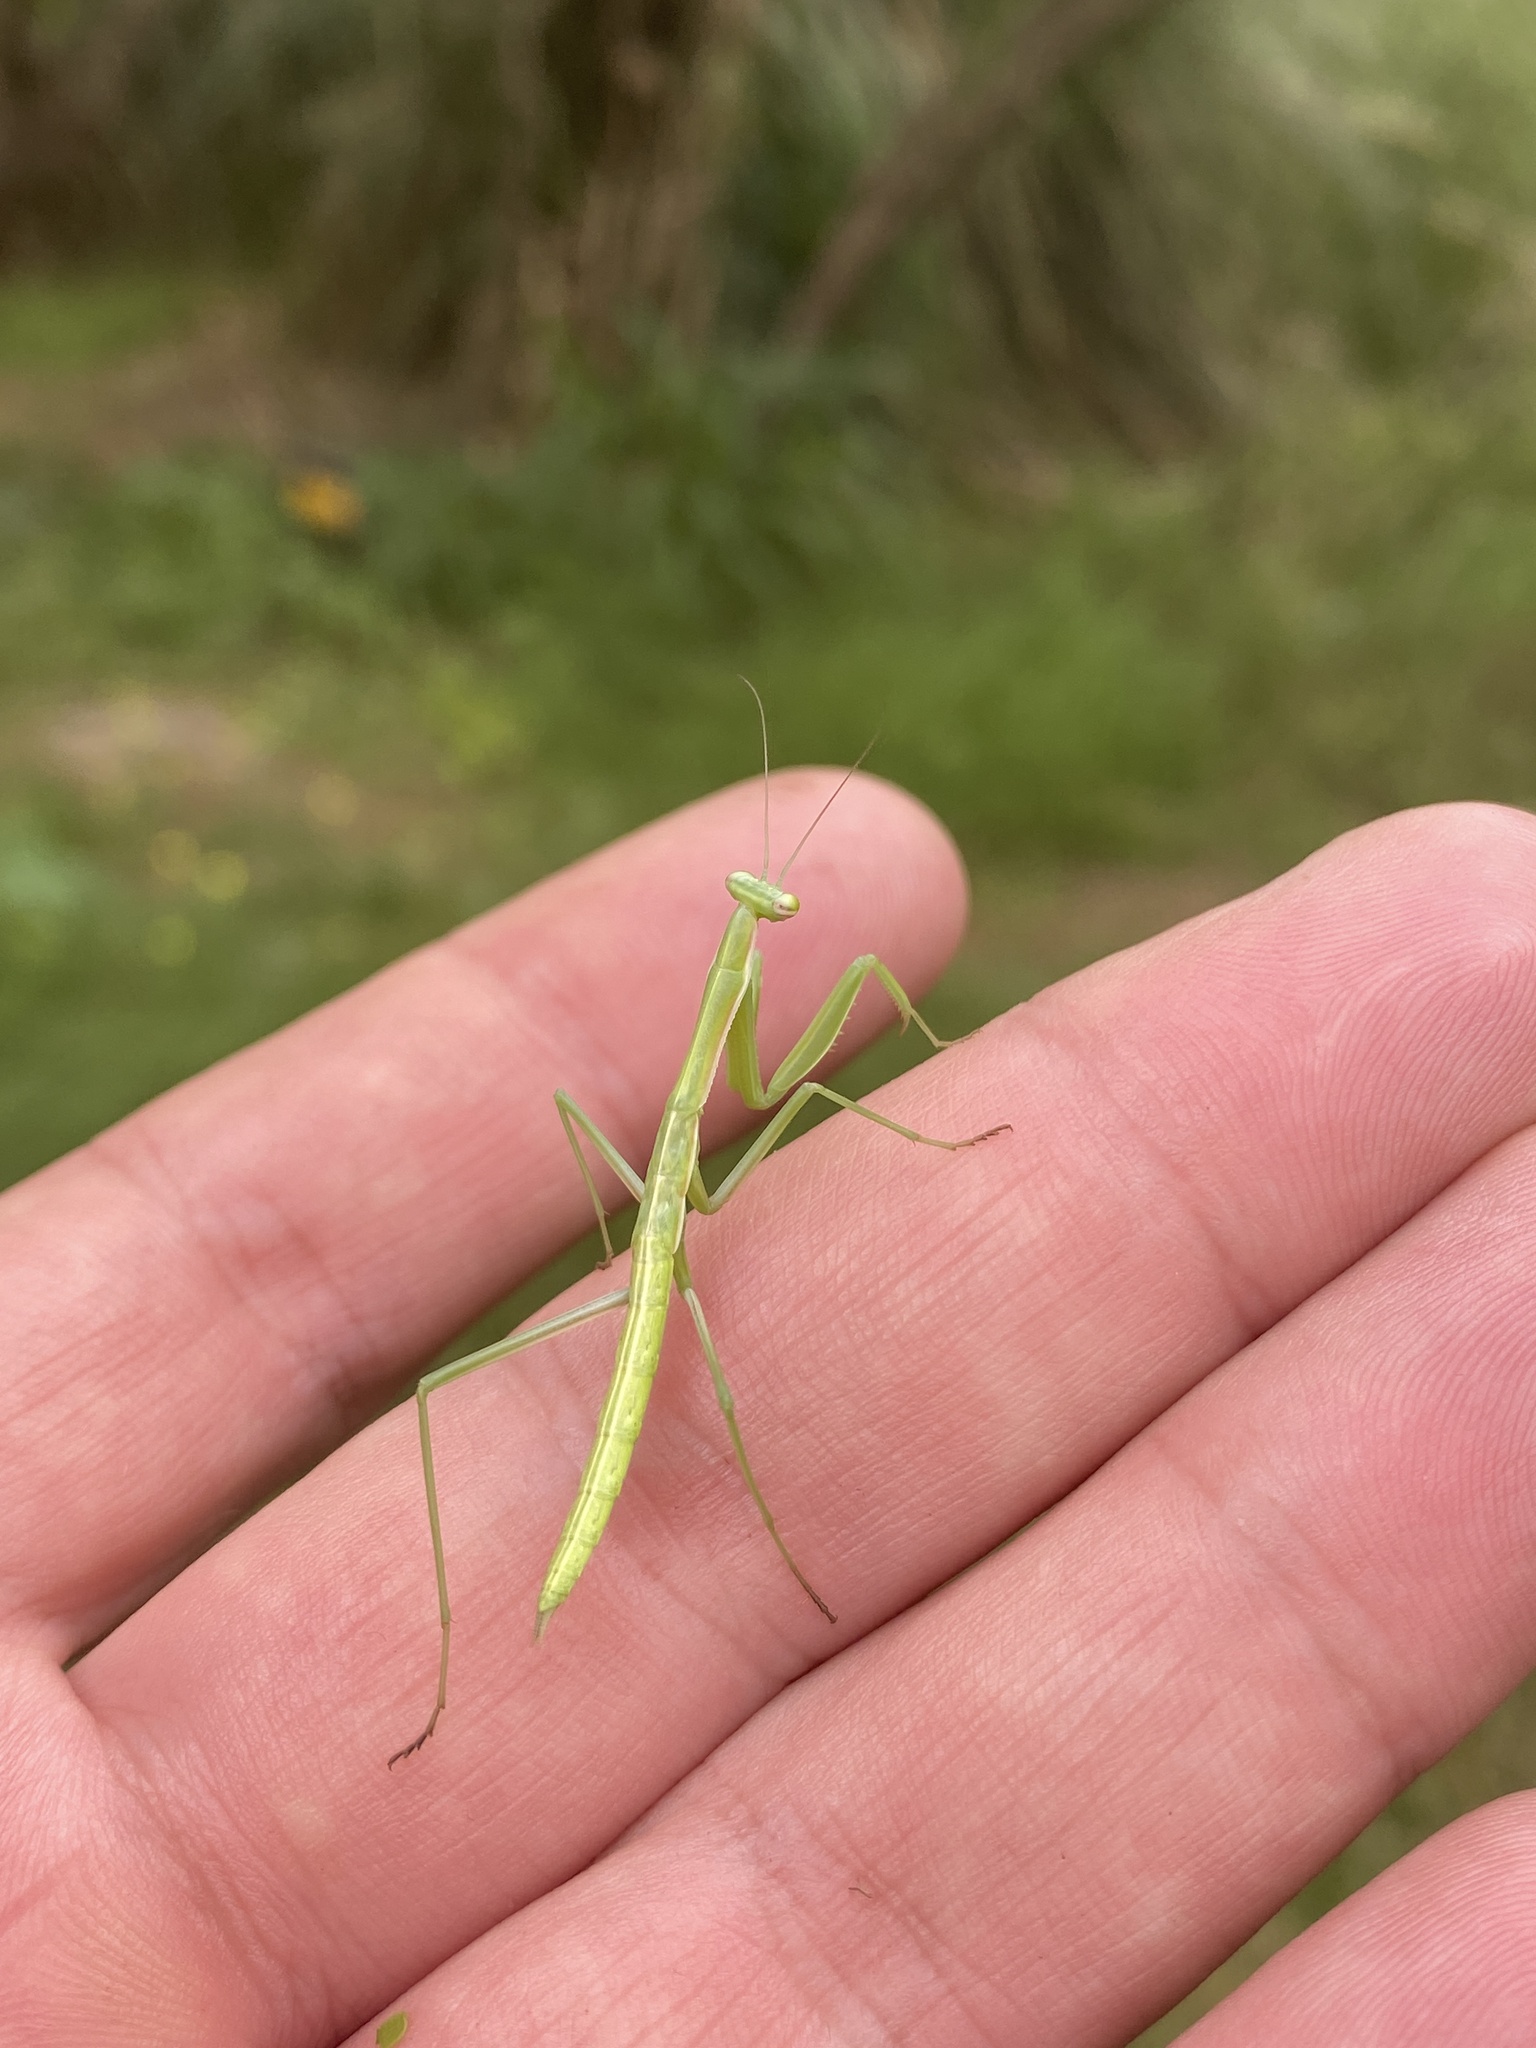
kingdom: Animalia
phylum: Arthropoda
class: Insecta
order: Mantodea
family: Coptopterygidae
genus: Coptopteryx
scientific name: Coptopteryx argentina
